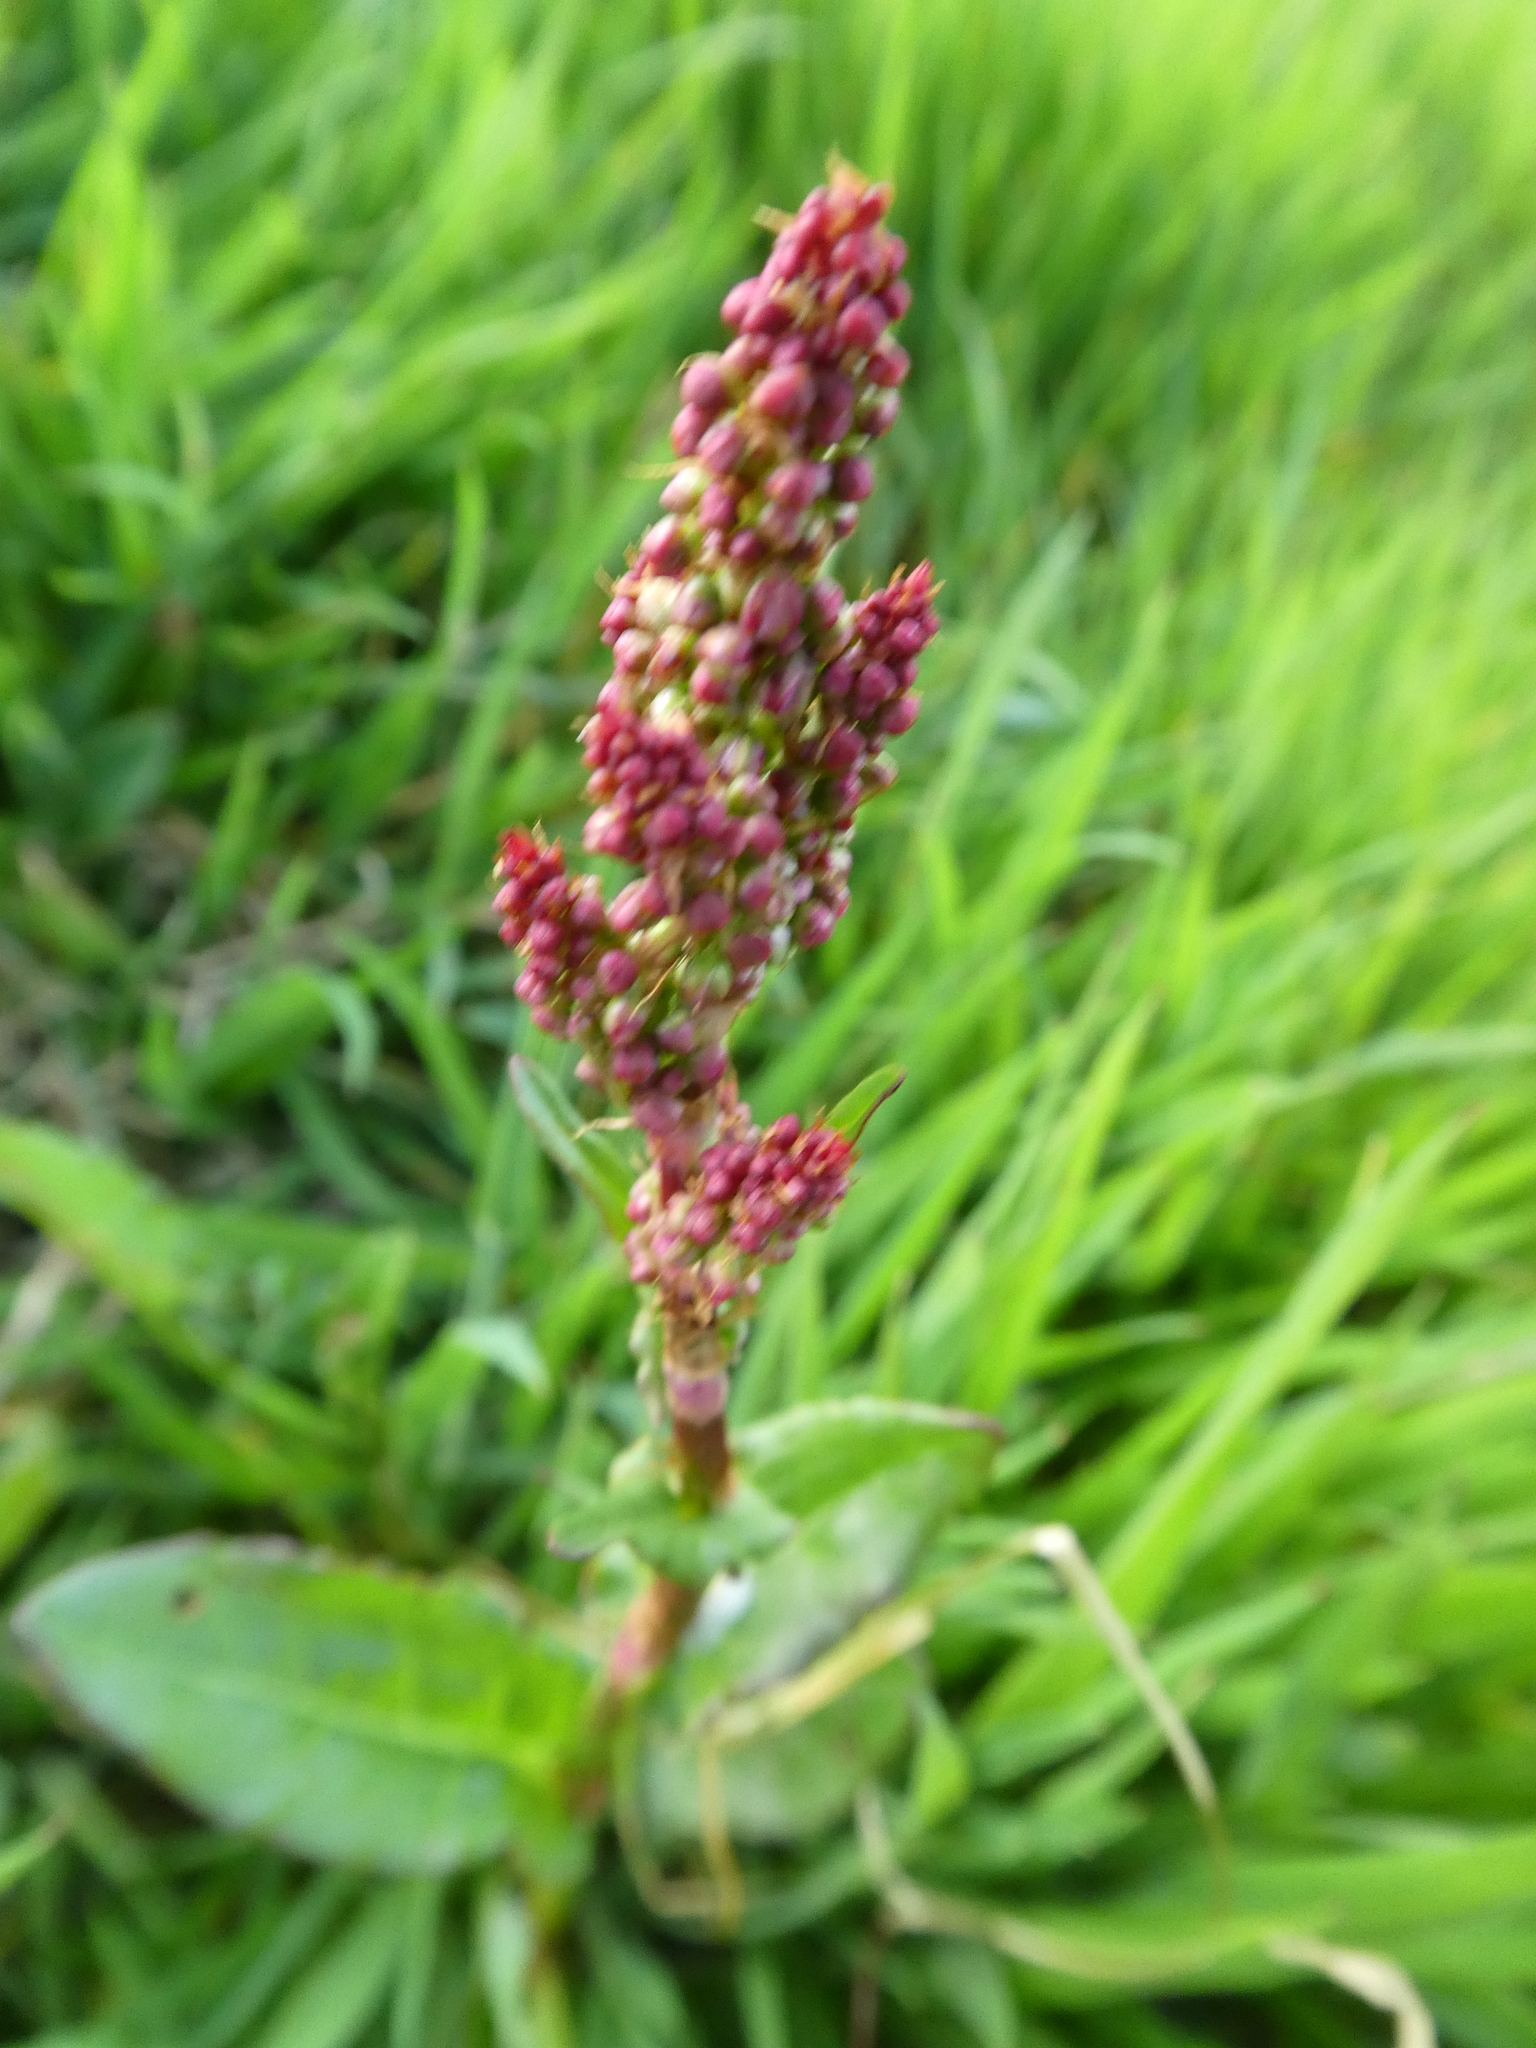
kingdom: Plantae
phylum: Tracheophyta
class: Magnoliopsida
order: Caryophyllales
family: Polygonaceae
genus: Rumex
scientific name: Rumex acetosa
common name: Garden sorrel
